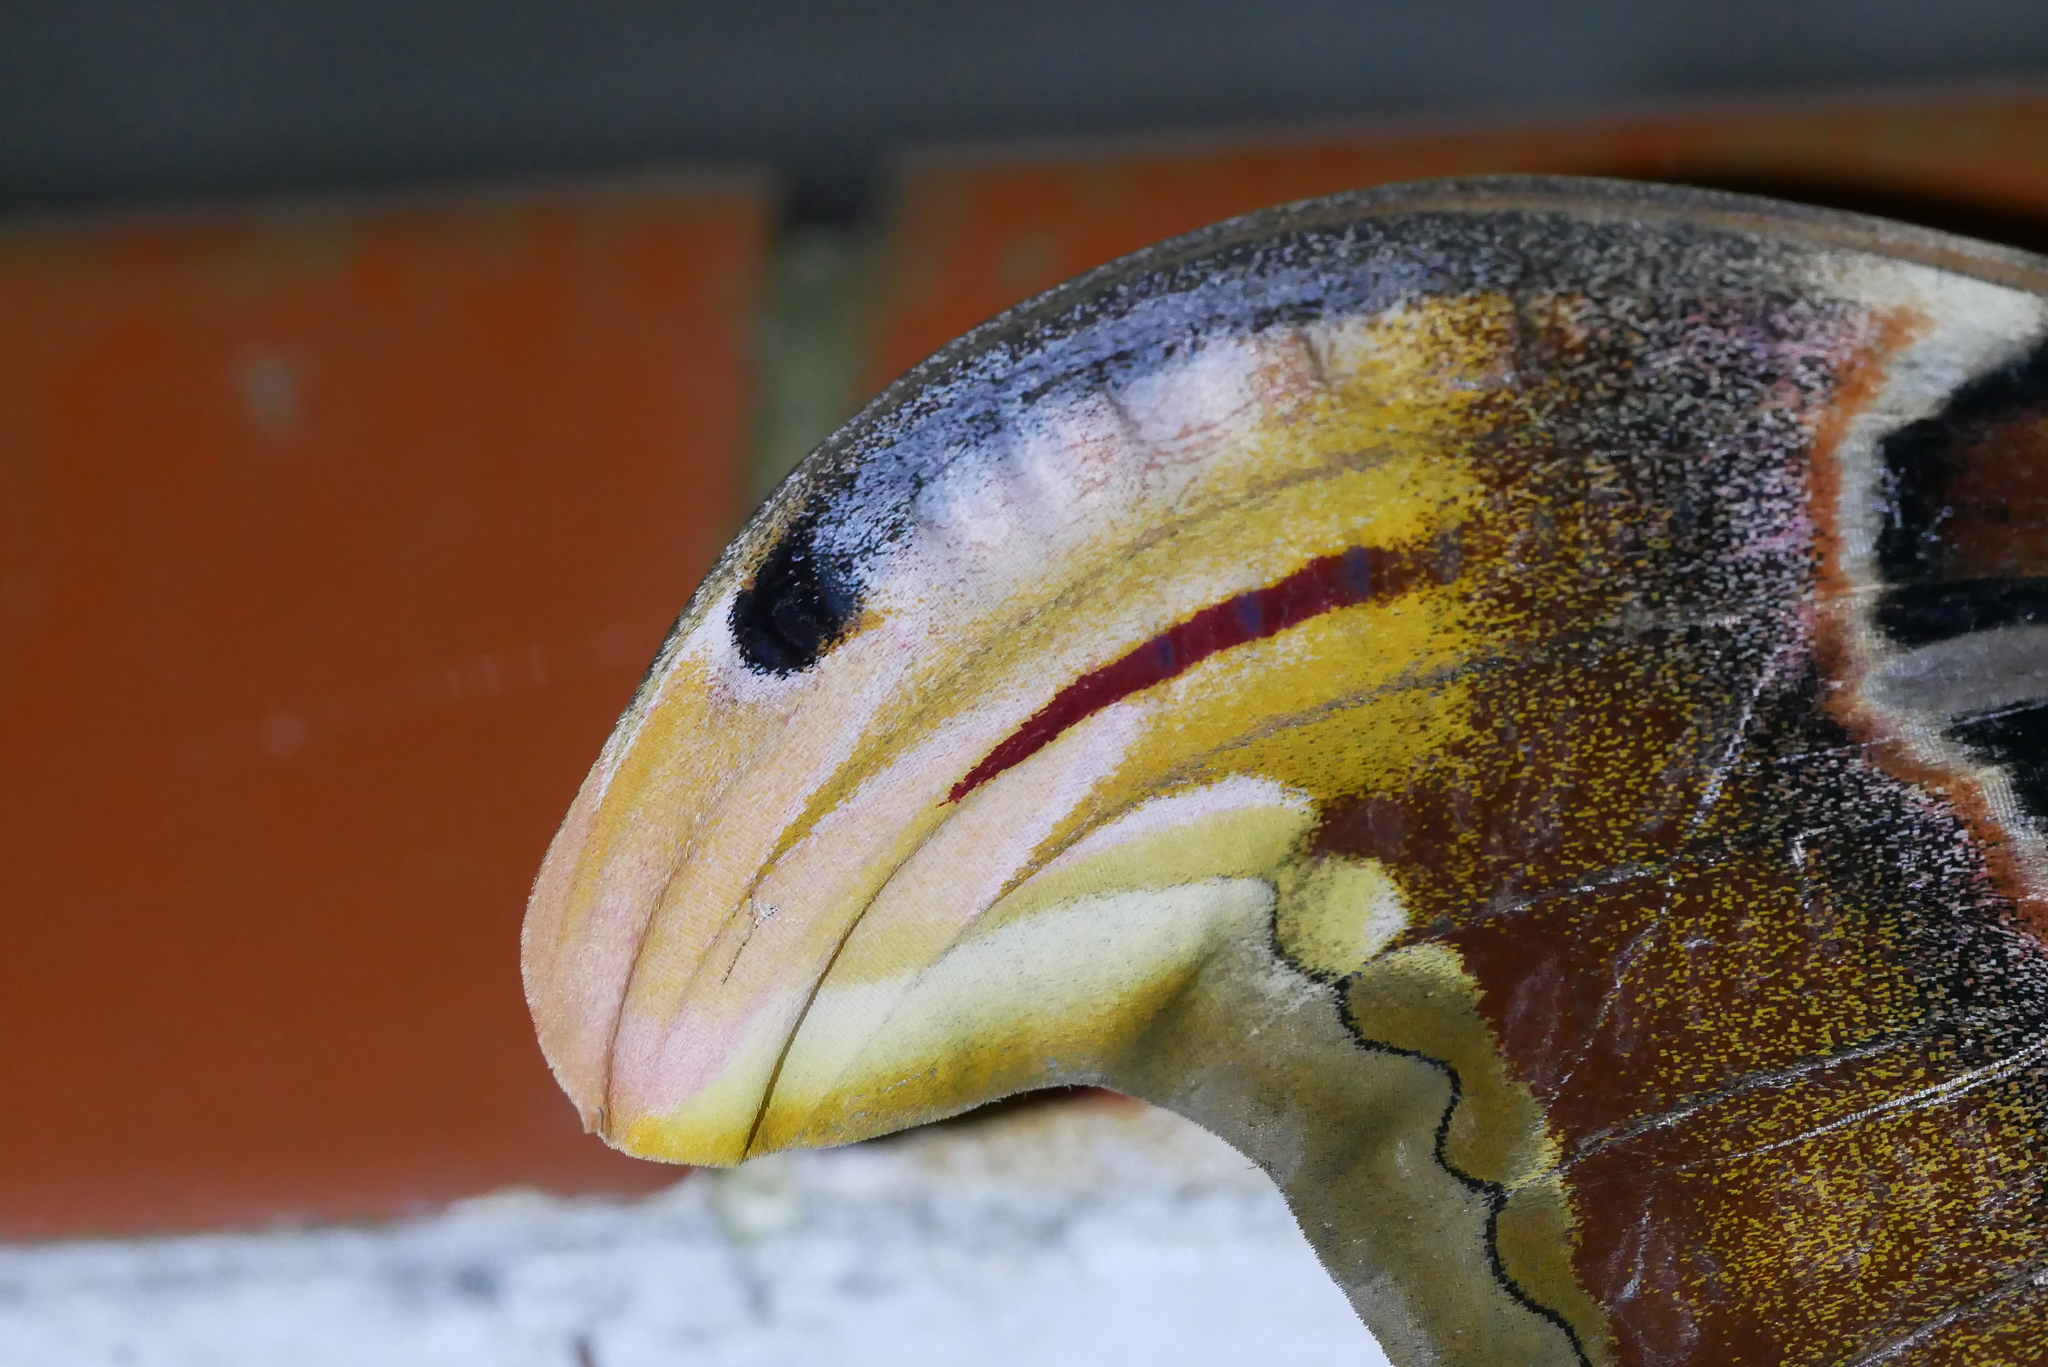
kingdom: Animalia
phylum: Arthropoda
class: Insecta
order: Lepidoptera
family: Saturniidae
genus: Attacus
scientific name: Attacus atlas
